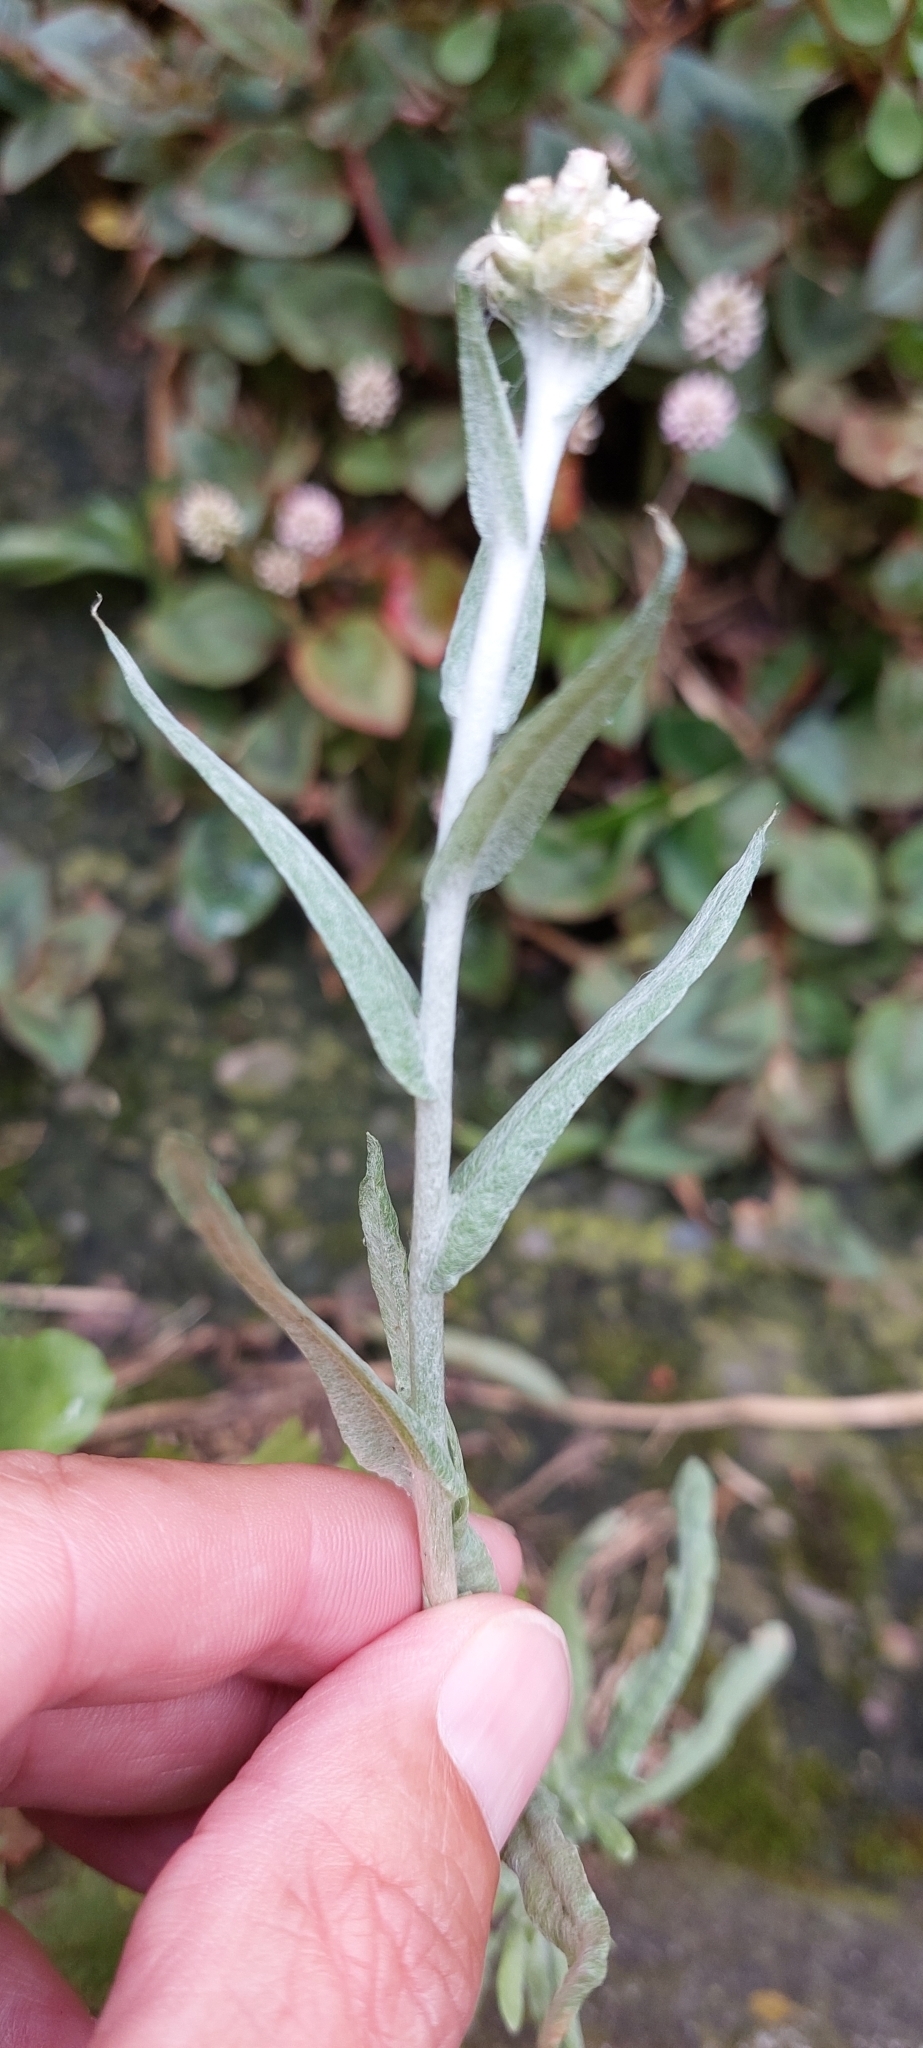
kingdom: Plantae
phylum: Tracheophyta
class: Magnoliopsida
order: Asterales
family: Asteraceae
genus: Helichrysum
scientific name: Helichrysum luteoalbum
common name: Daisy
